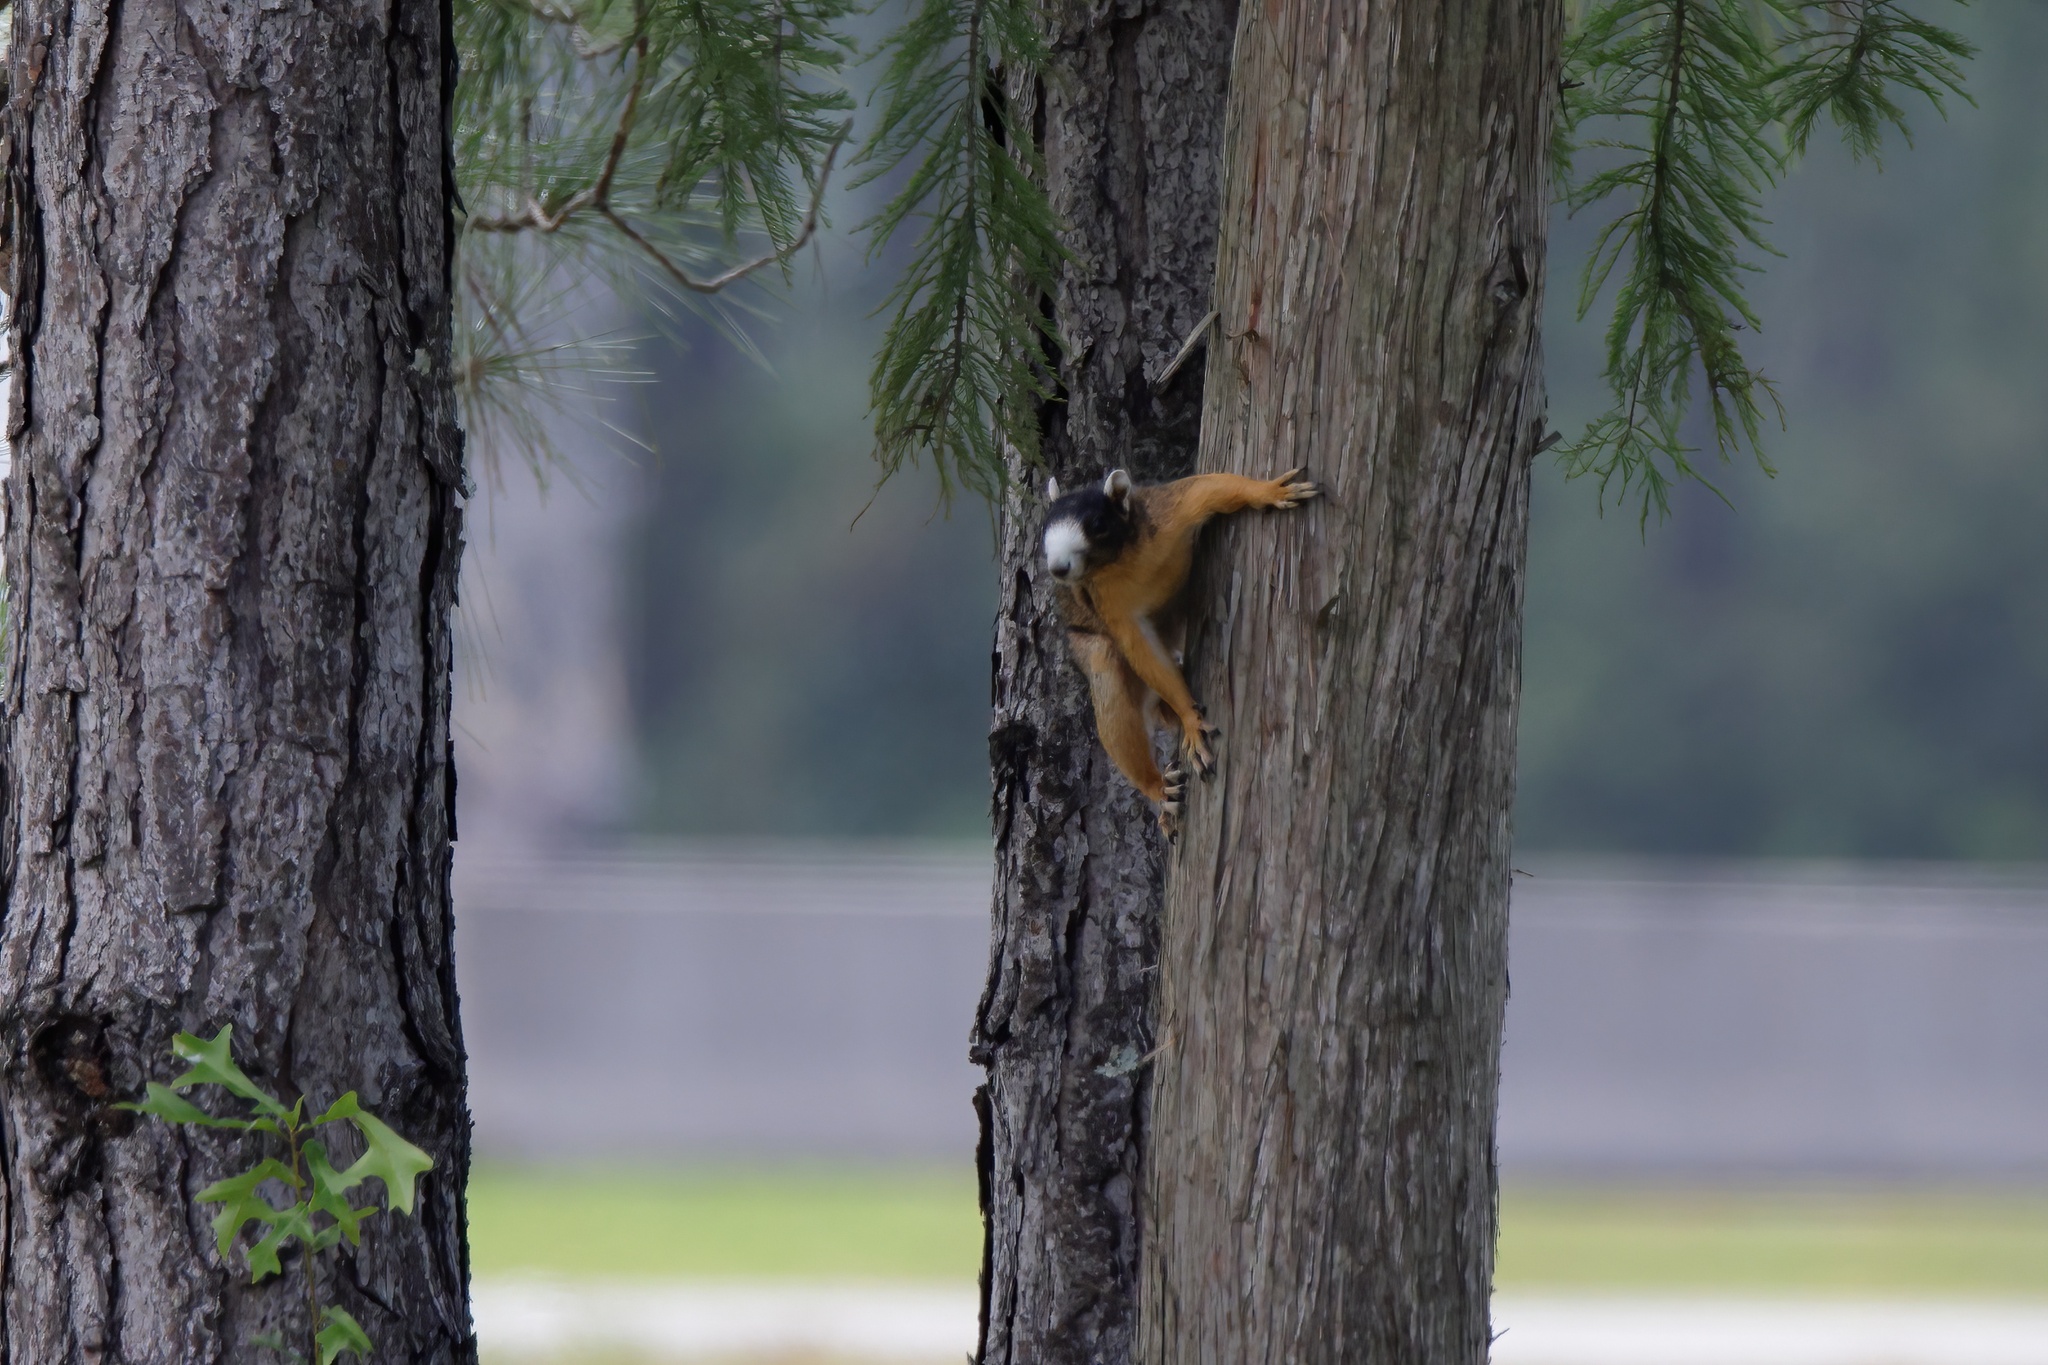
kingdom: Animalia
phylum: Chordata
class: Mammalia
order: Rodentia
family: Sciuridae
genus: Sciurus
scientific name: Sciurus niger
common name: Fox squirrel
